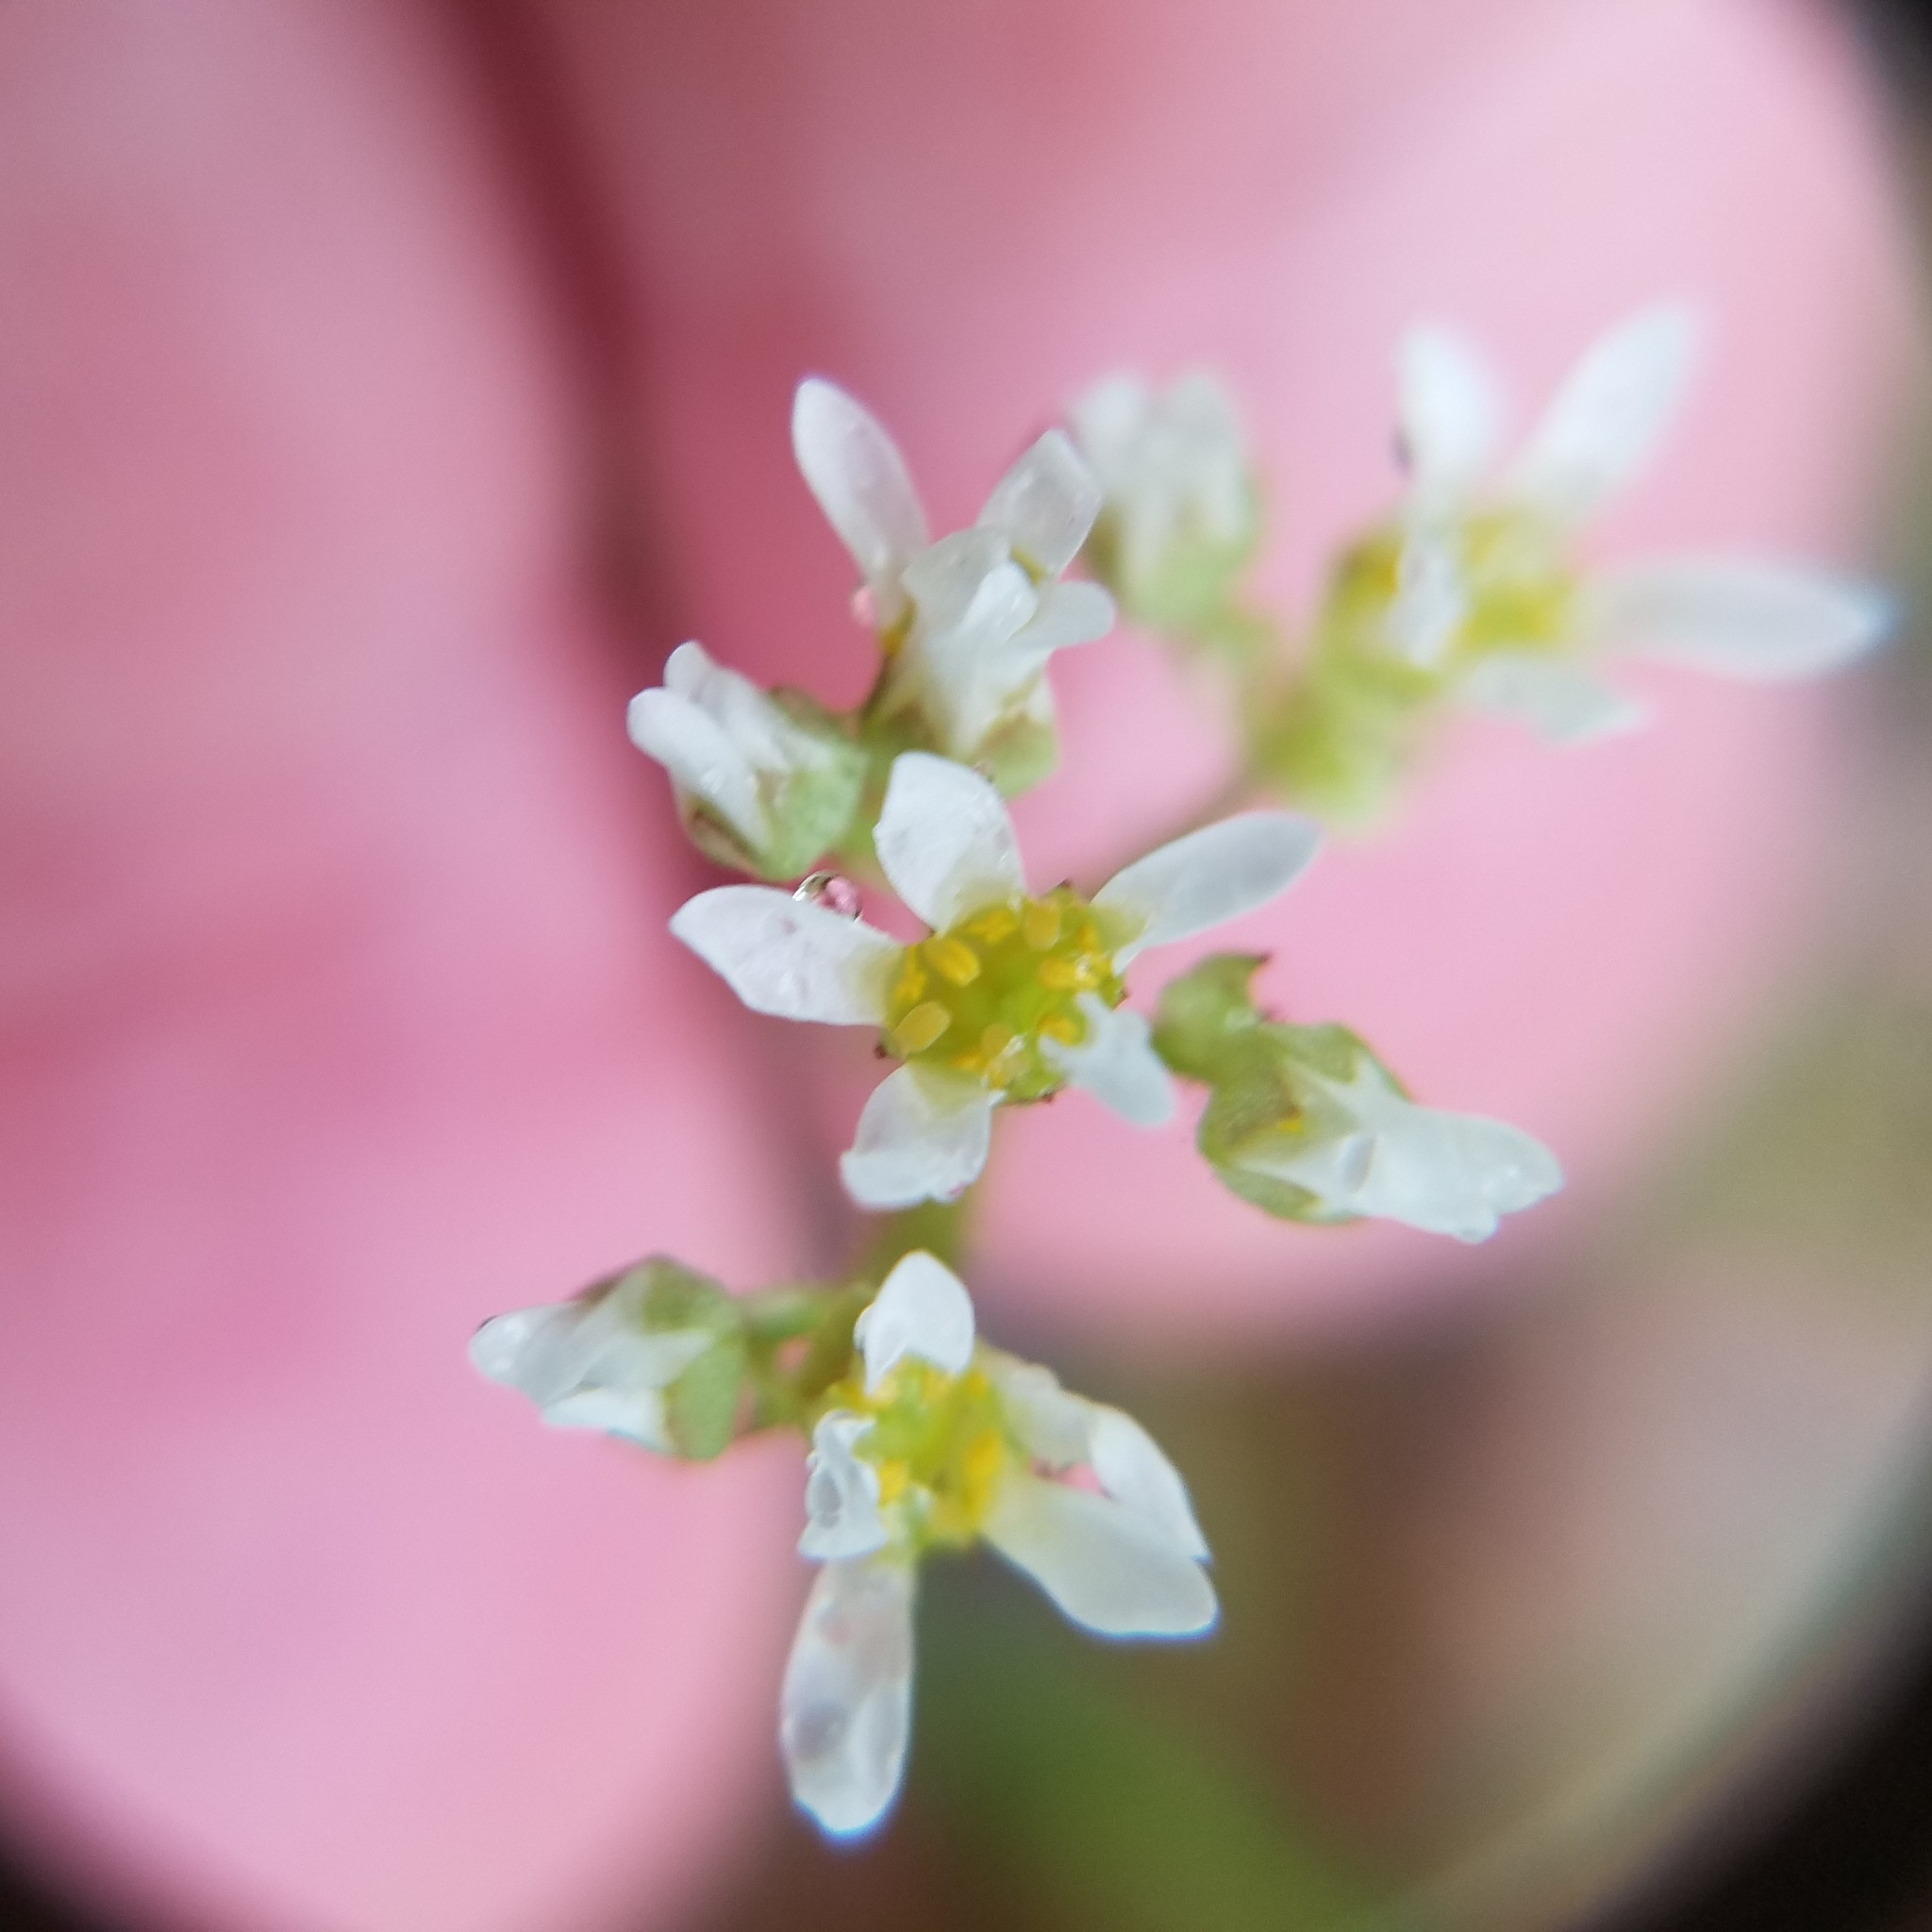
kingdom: Plantae
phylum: Tracheophyta
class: Magnoliopsida
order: Saxifragales
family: Saxifragaceae
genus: Micranthes
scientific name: Micranthes virginiensis
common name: Early saxifrage
